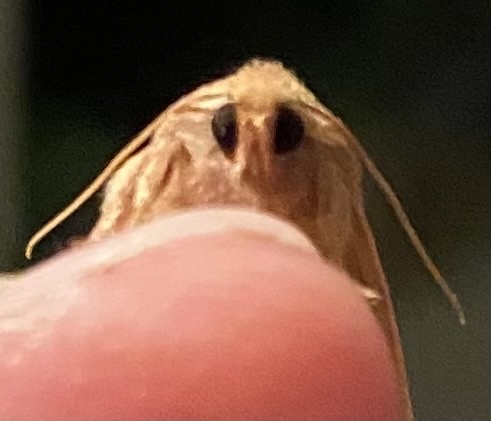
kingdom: Animalia
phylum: Arthropoda
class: Insecta
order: Lepidoptera
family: Noctuidae
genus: Agrochola
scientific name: Agrochola bicolorago
